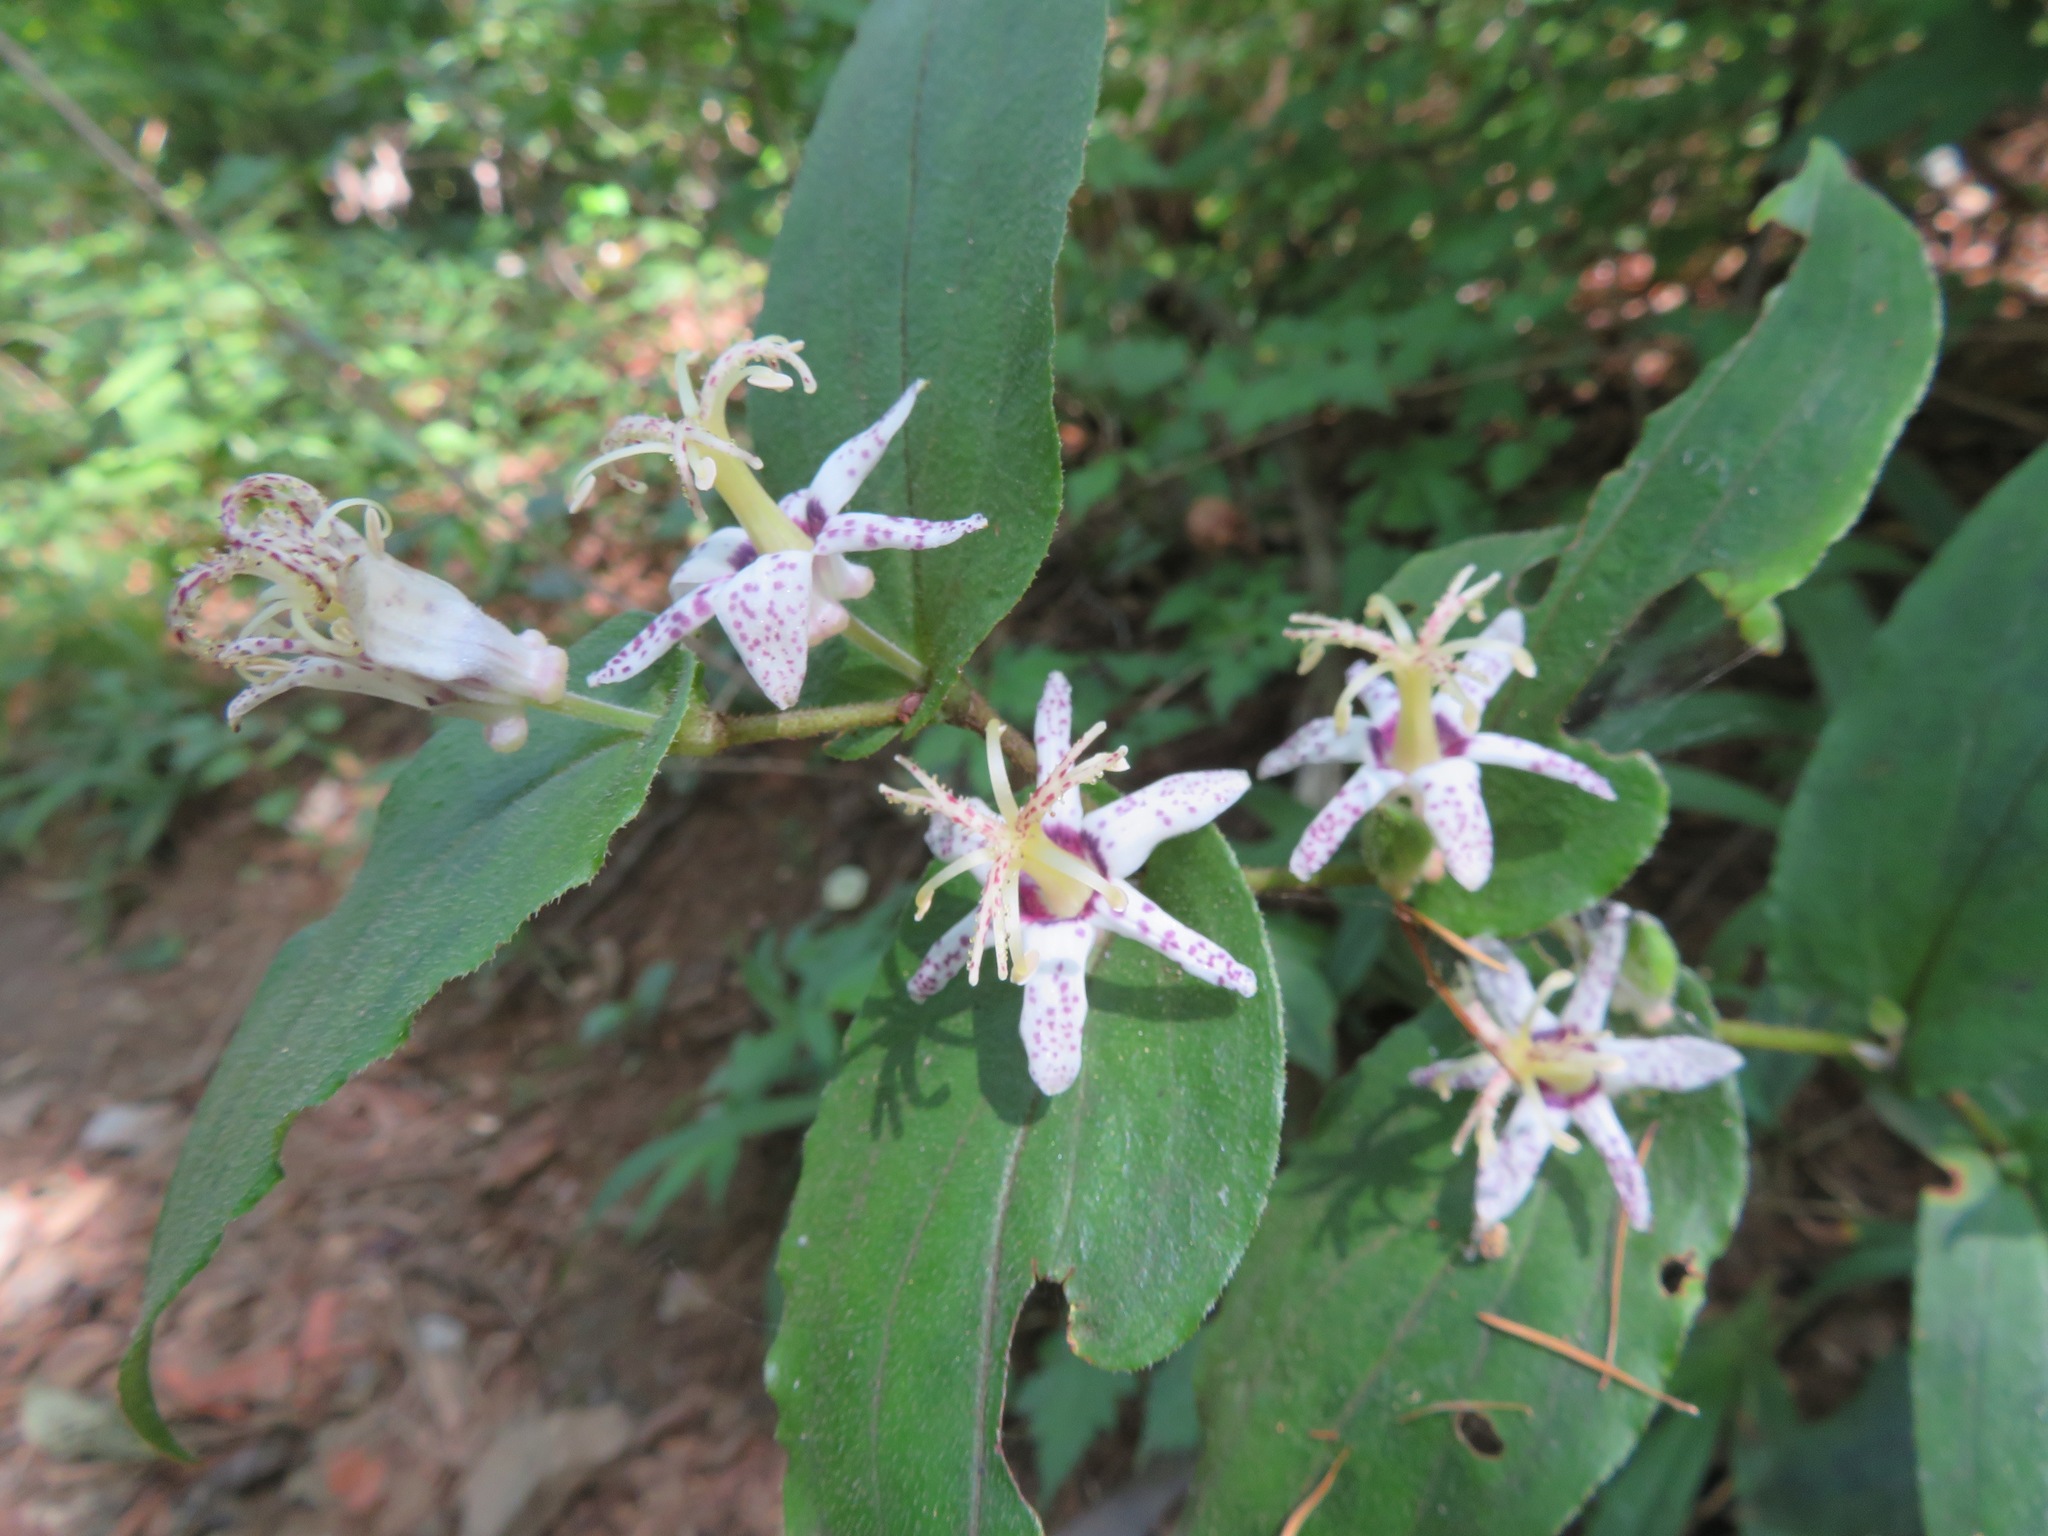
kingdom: Plantae
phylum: Tracheophyta
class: Liliopsida
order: Liliales
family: Liliaceae
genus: Tricyrtis
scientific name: Tricyrtis affinis
